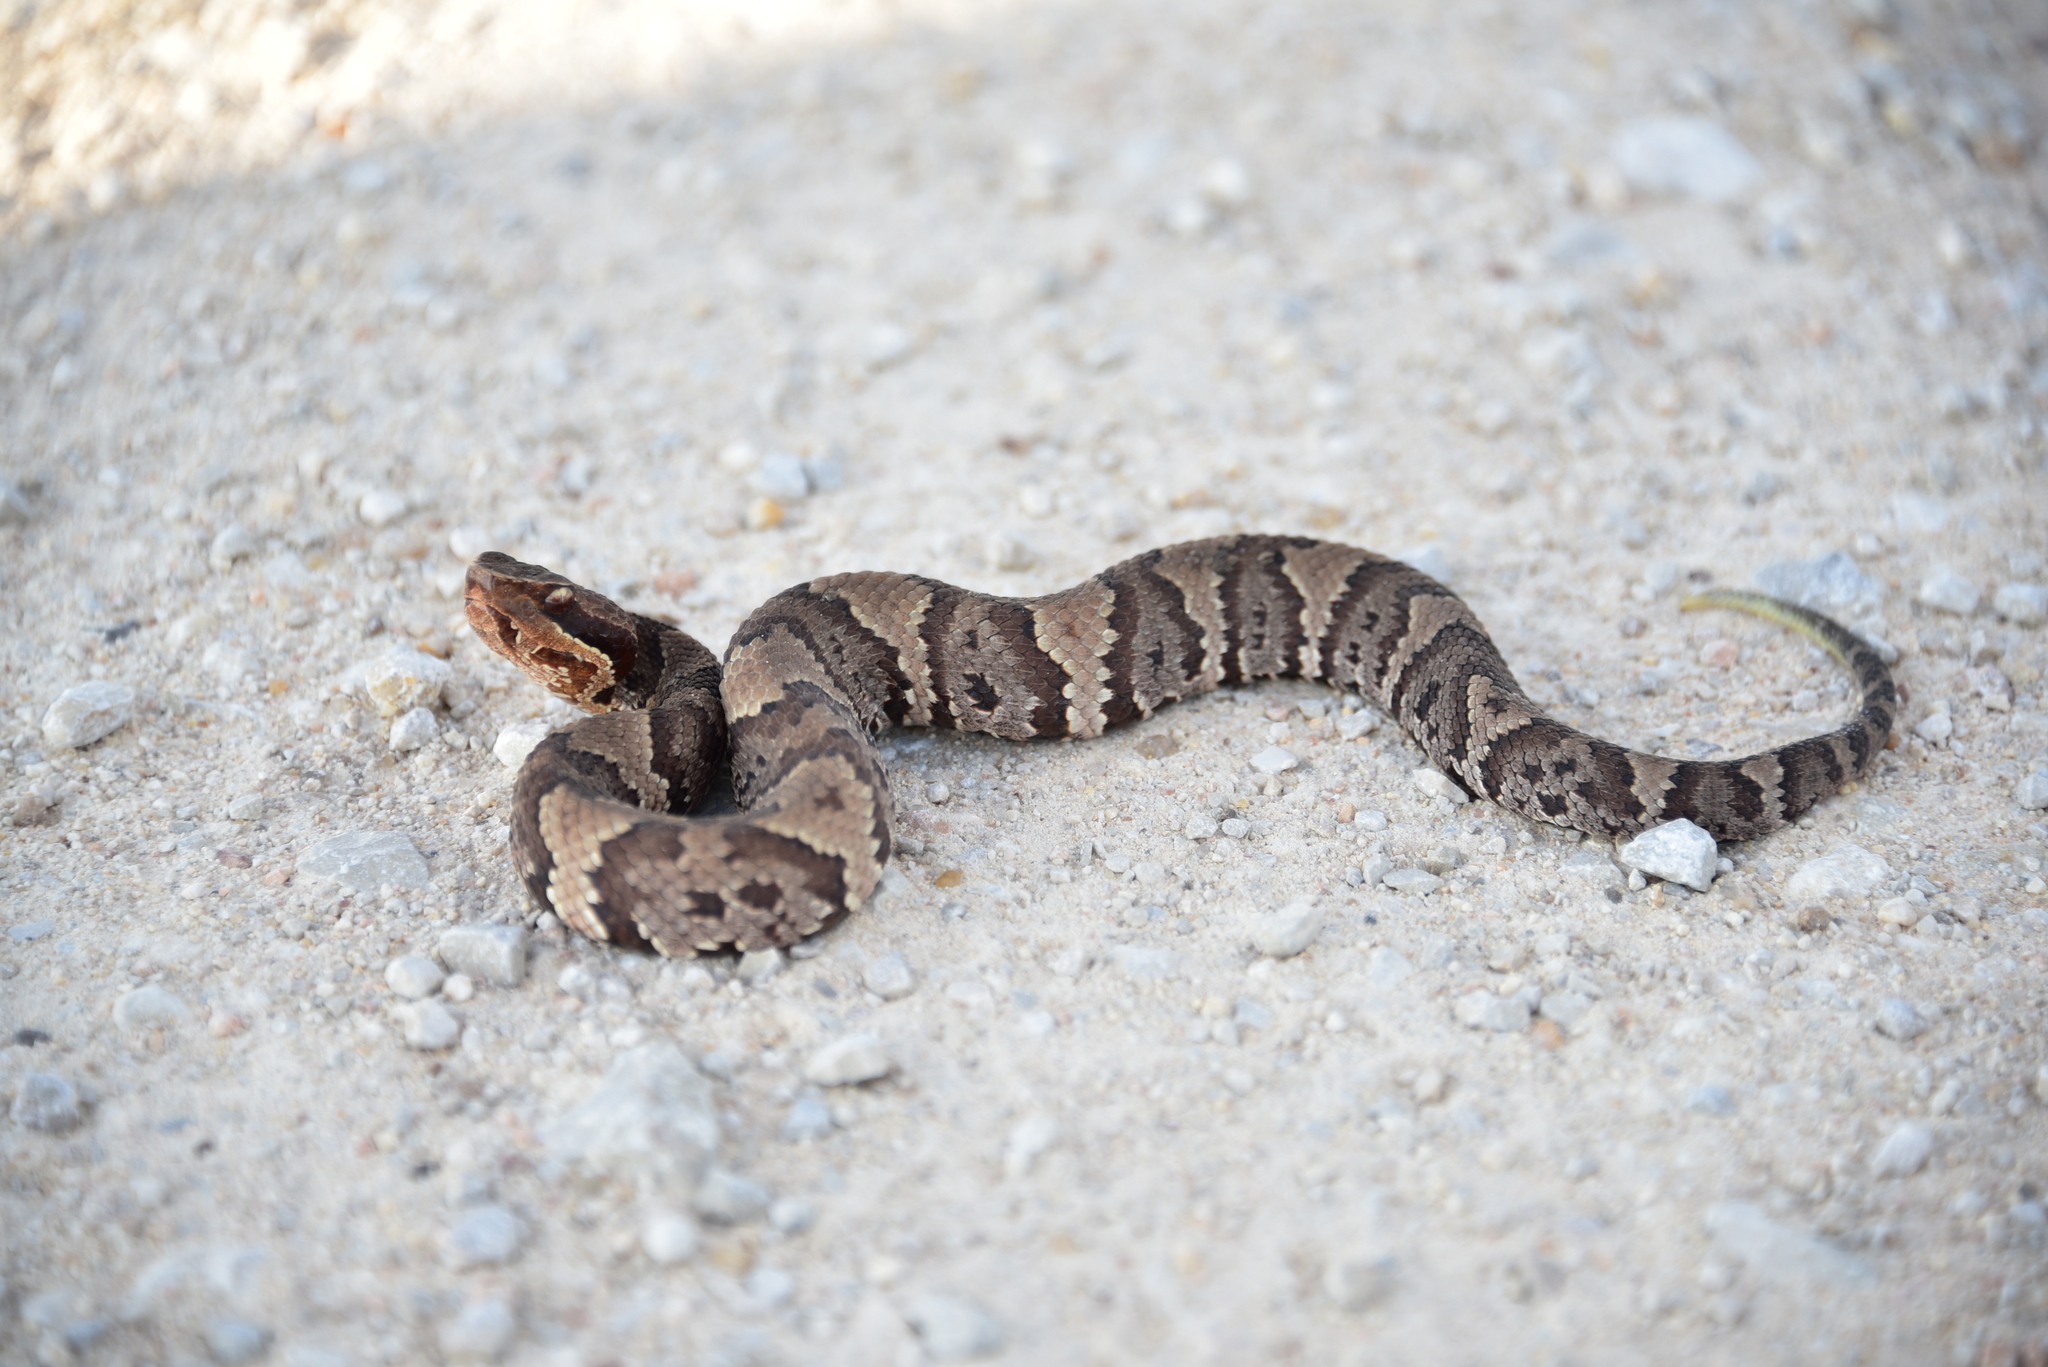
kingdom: Animalia
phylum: Chordata
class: Squamata
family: Viperidae
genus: Agkistrodon
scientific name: Agkistrodon piscivorus
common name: Cottonmouth
